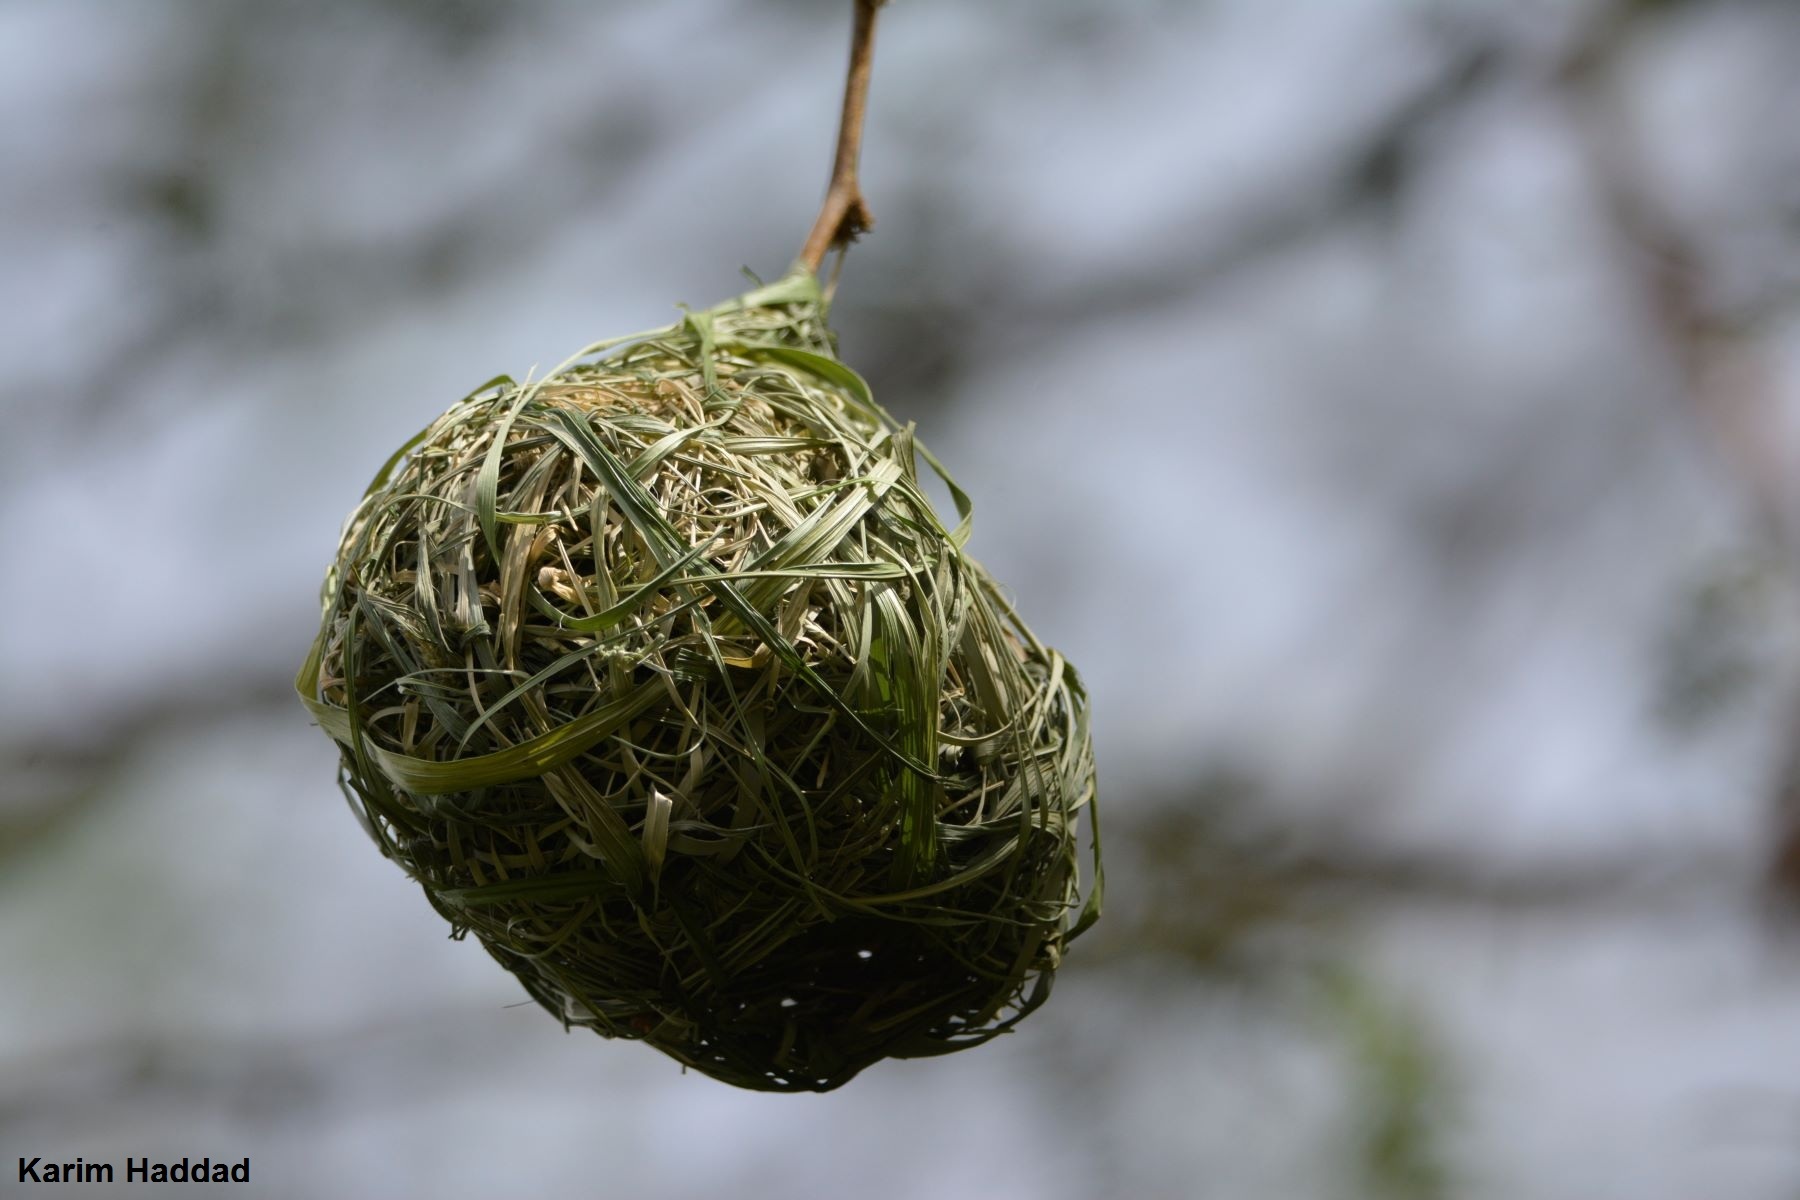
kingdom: Animalia
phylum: Chordata
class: Aves
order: Passeriformes
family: Ploceidae
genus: Ploceus
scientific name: Ploceus vitellinus
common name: Vitelline masked weaver
